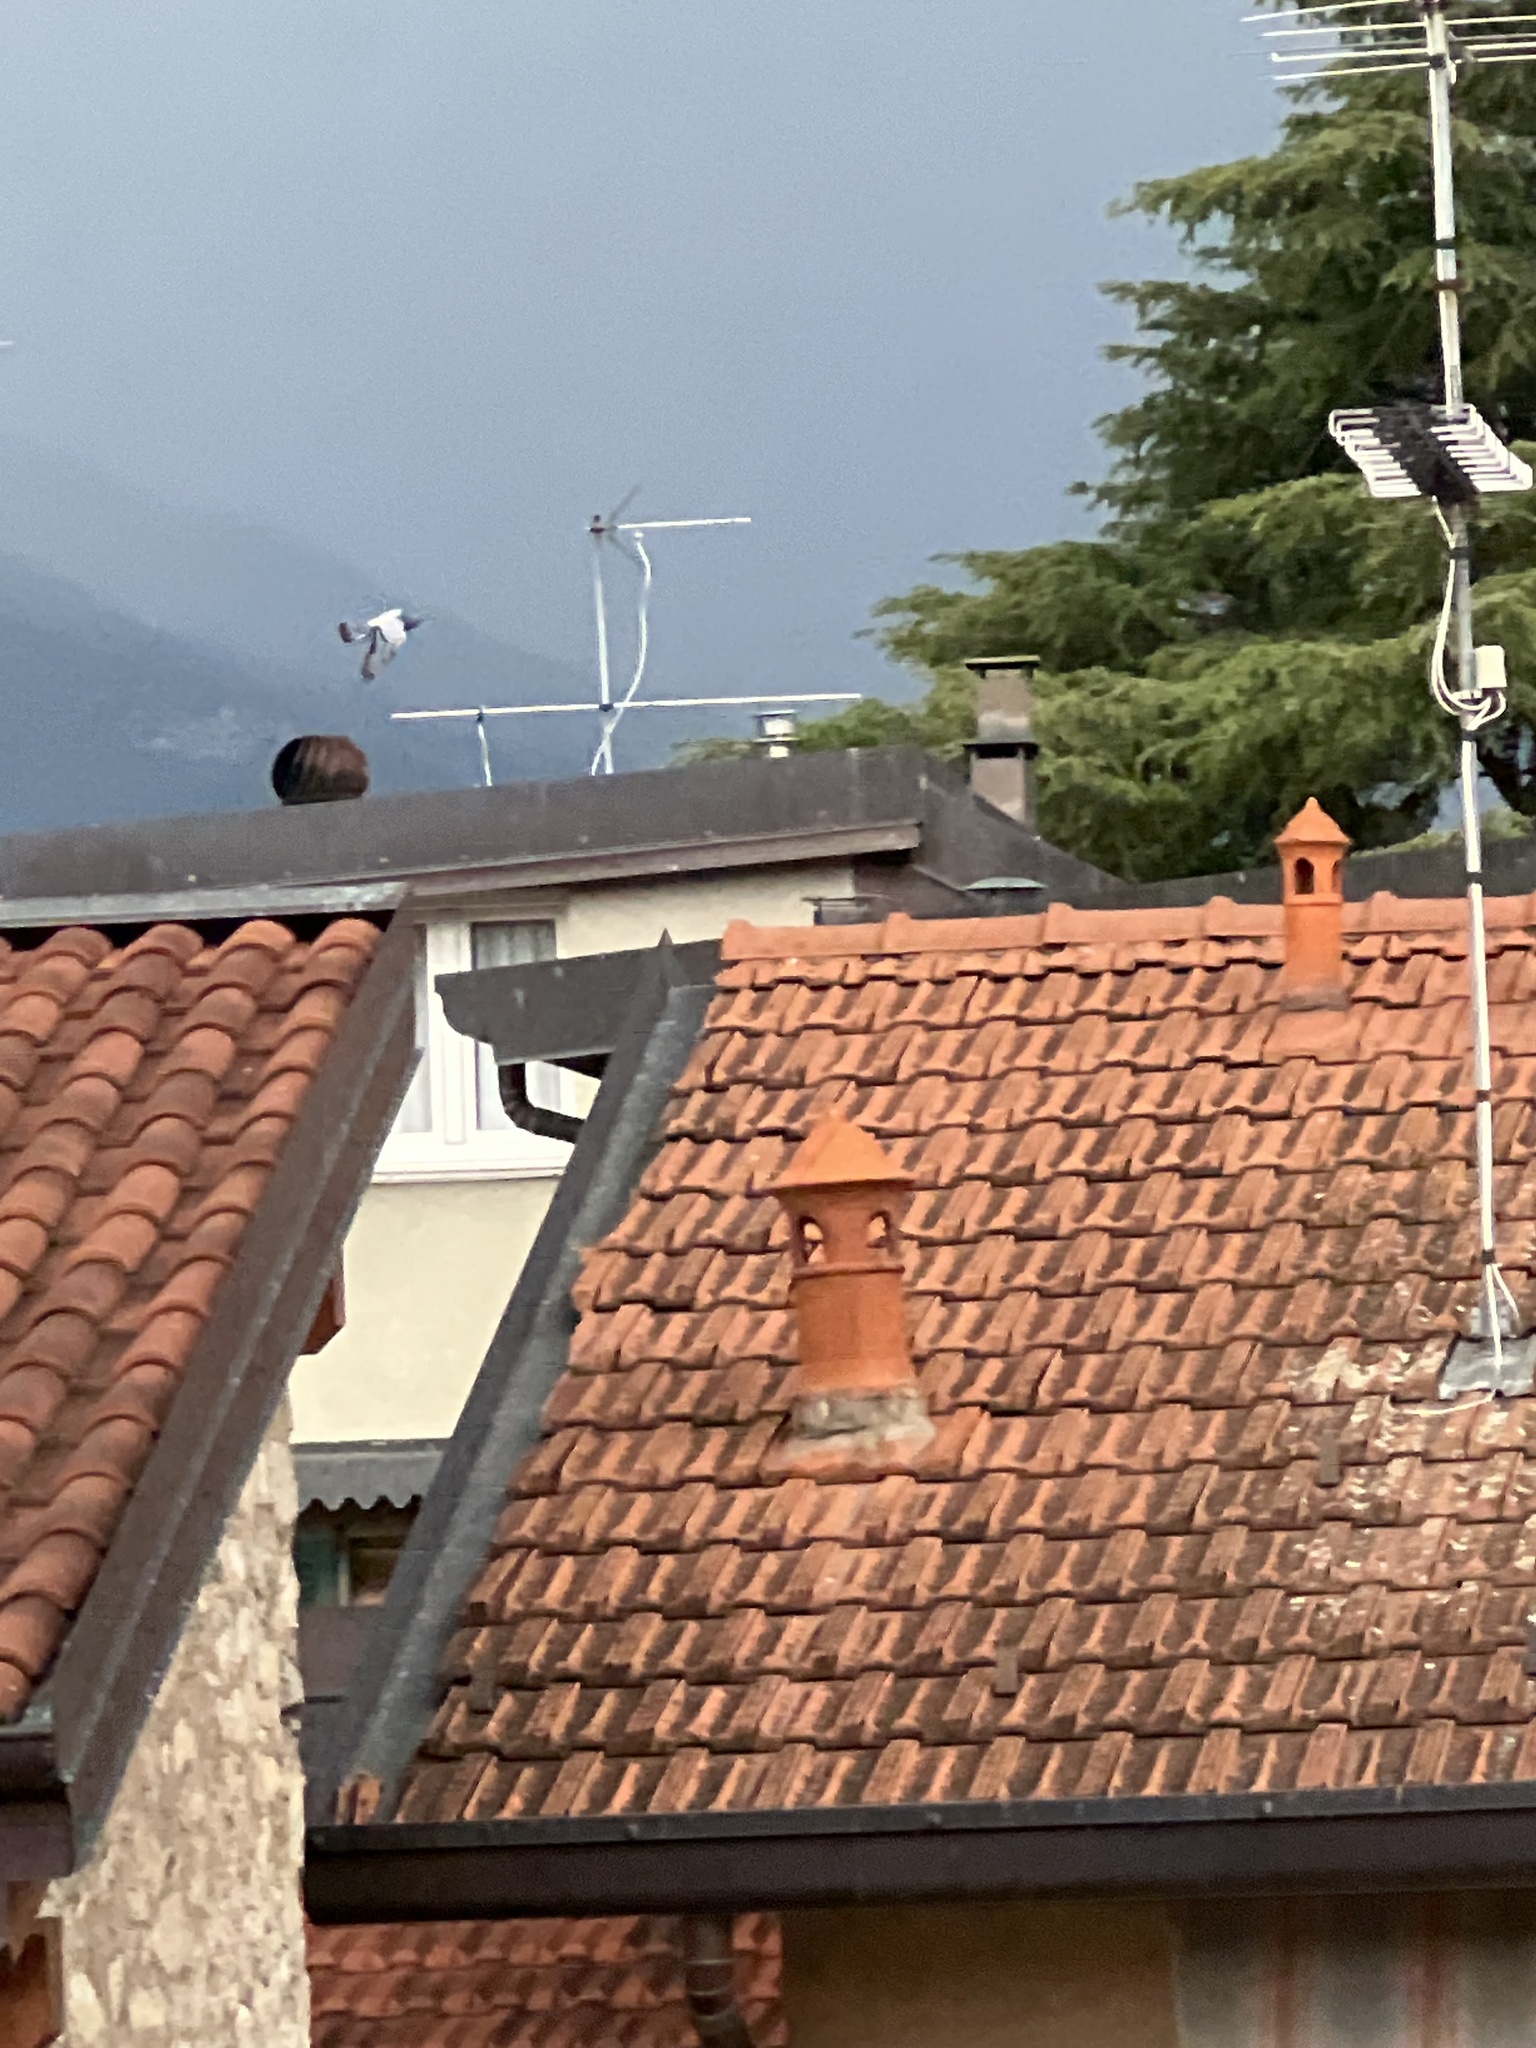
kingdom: Animalia
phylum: Chordata
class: Aves
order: Columbiformes
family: Columbidae
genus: Columba
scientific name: Columba livia
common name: Rock pigeon
